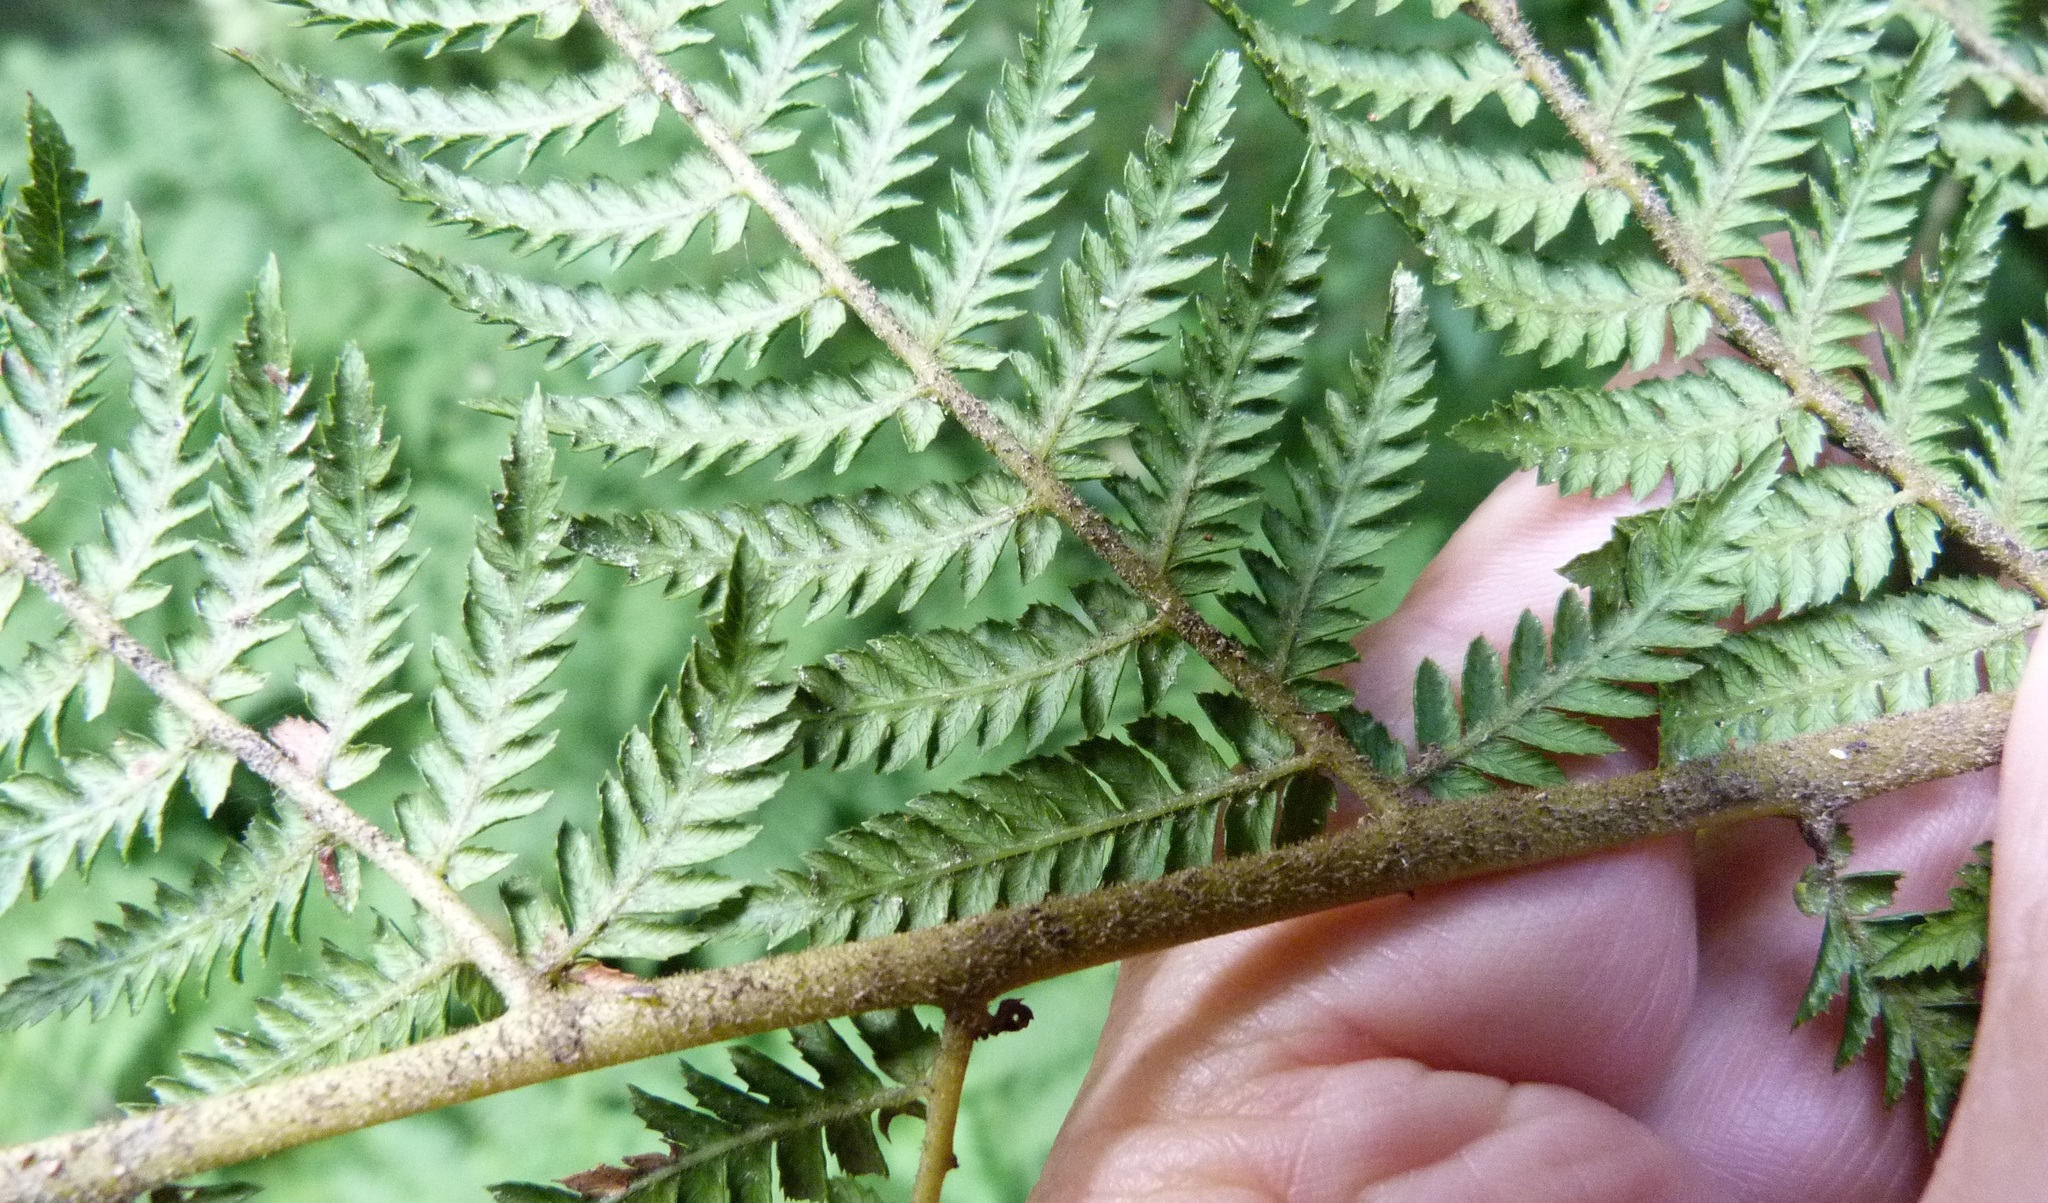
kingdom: Plantae
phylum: Tracheophyta
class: Polypodiopsida
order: Cyatheales
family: Dicksoniaceae
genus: Dicksonia
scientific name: Dicksonia fibrosa
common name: Golden tree fern
